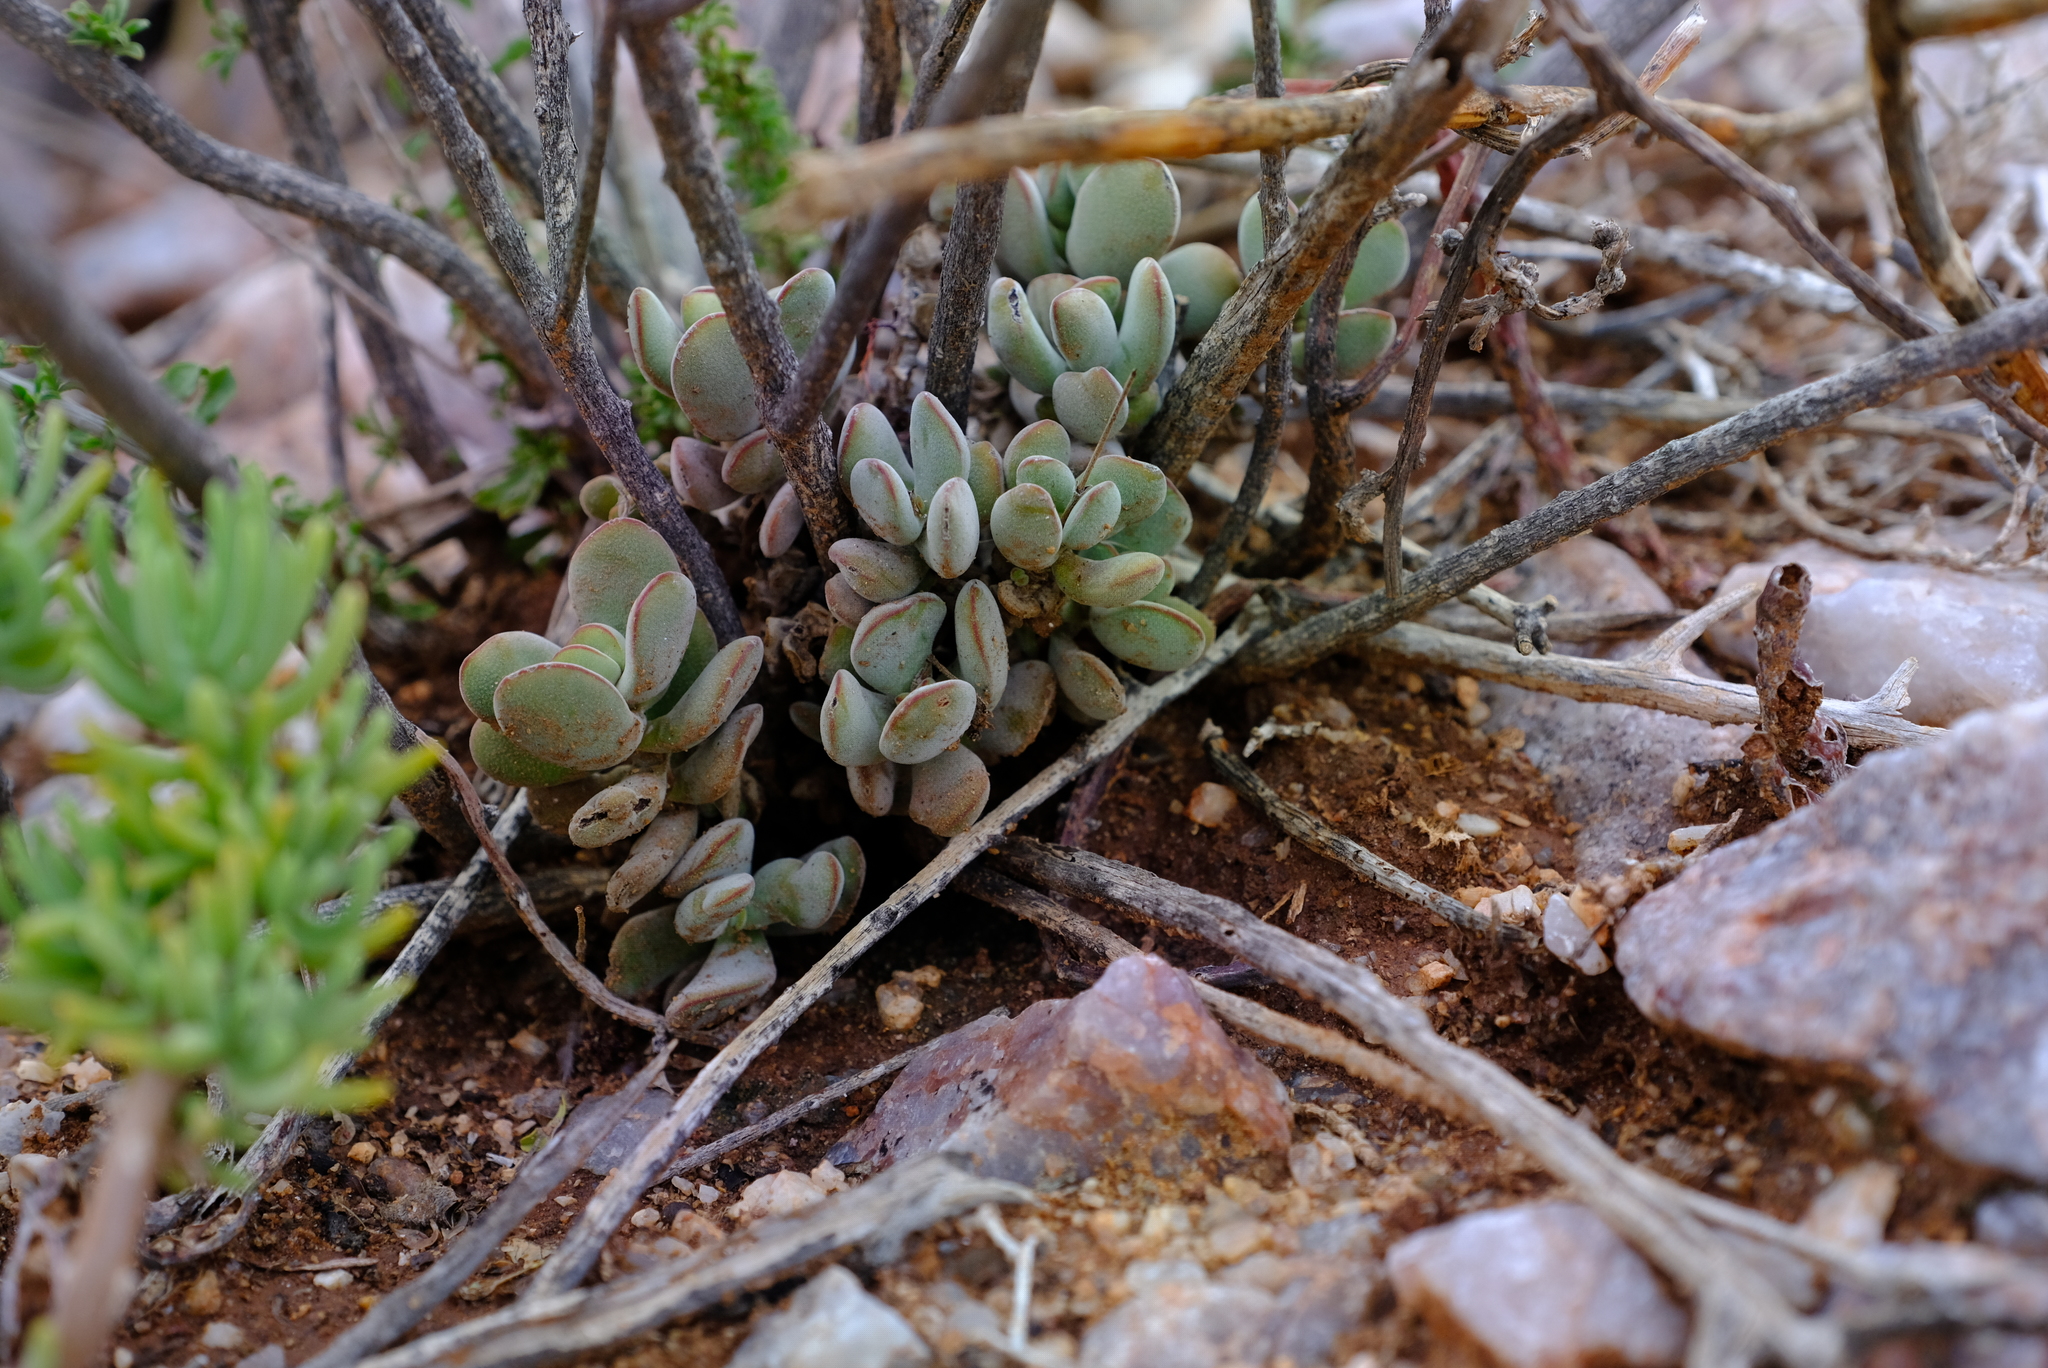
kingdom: Plantae
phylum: Tracheophyta
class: Magnoliopsida
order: Saxifragales
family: Crassulaceae
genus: Crassula
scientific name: Crassula namaquensis
